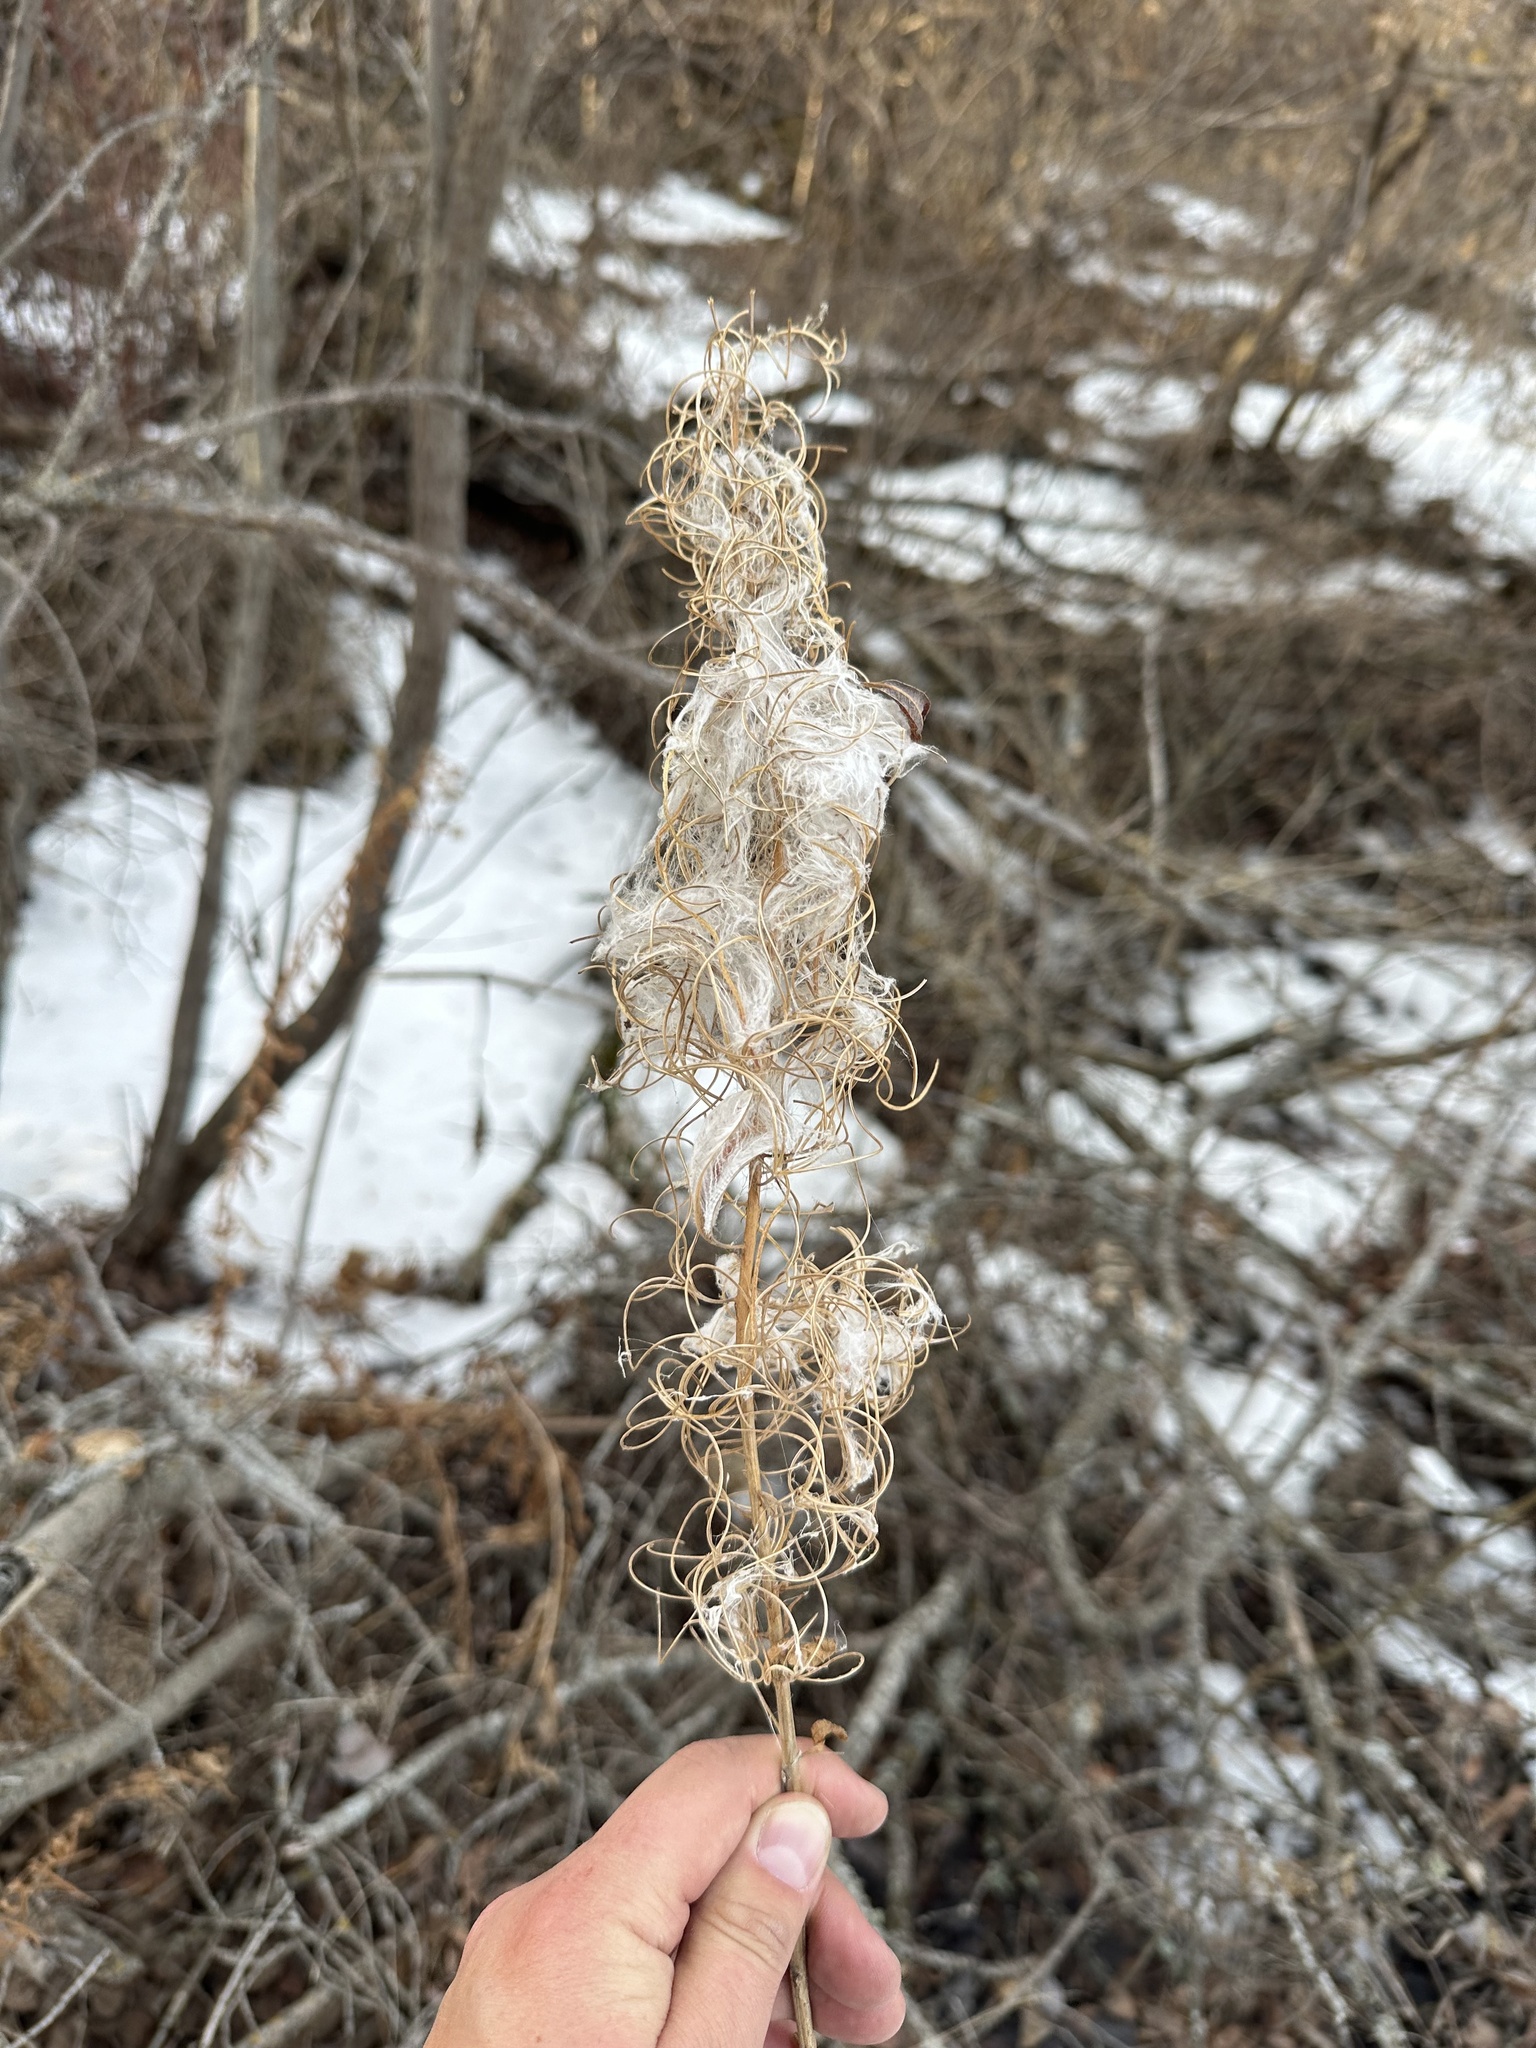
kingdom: Plantae
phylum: Tracheophyta
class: Magnoliopsida
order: Myrtales
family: Onagraceae
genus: Chamaenerion
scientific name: Chamaenerion angustifolium
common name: Fireweed
